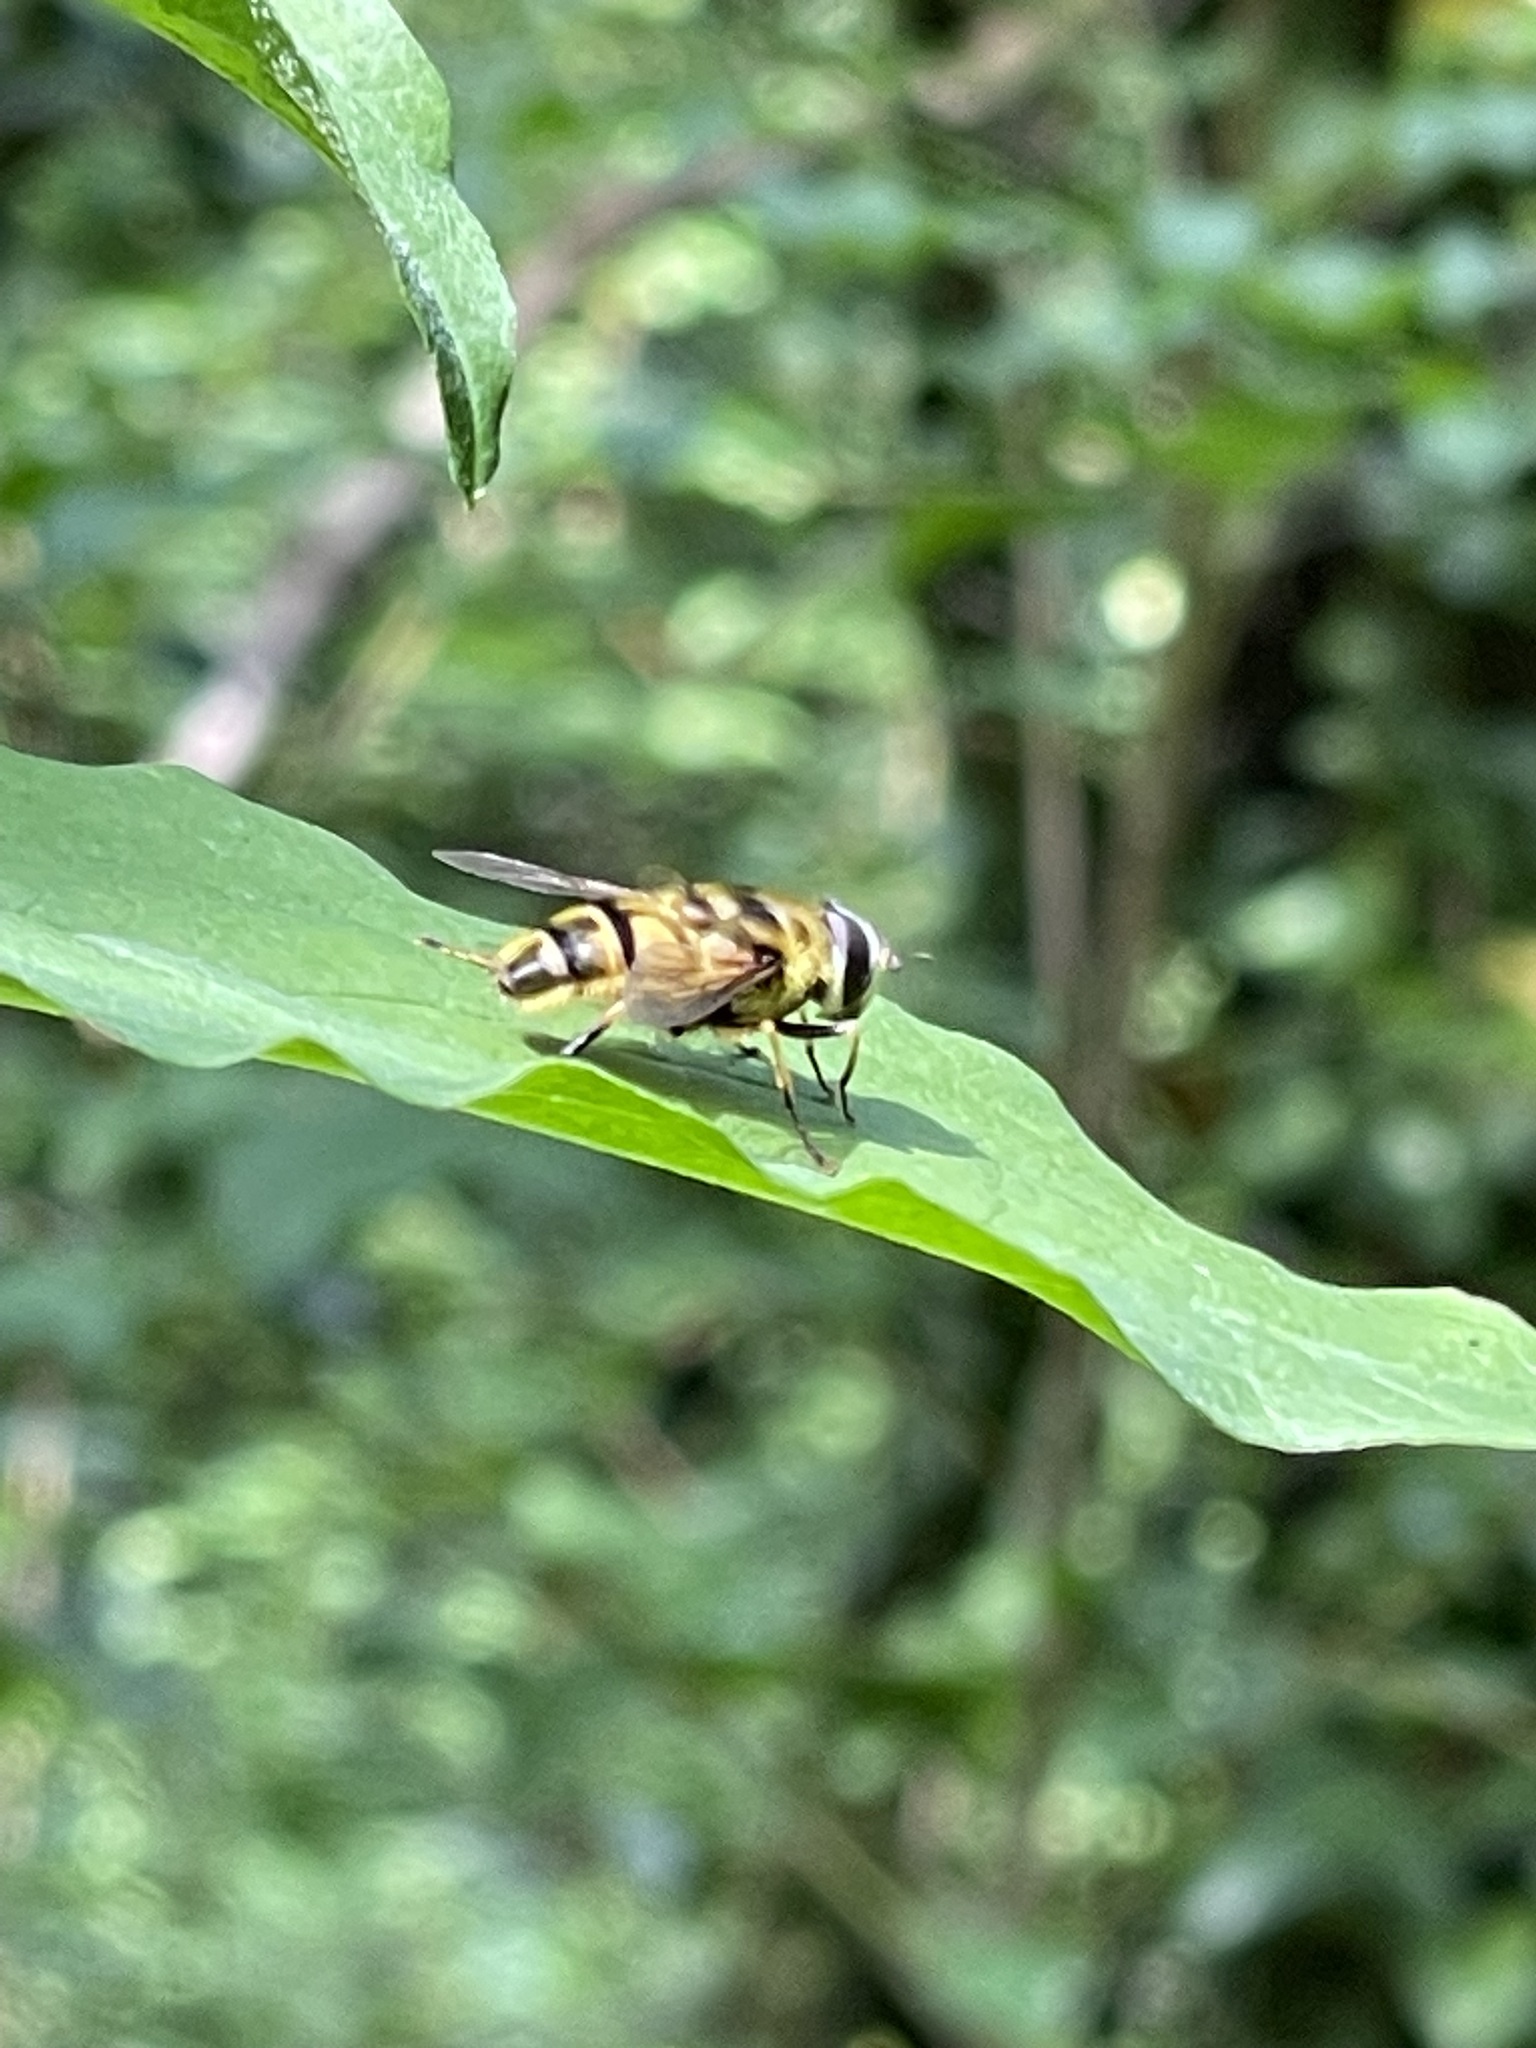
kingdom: Animalia
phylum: Arthropoda
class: Insecta
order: Diptera
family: Syrphidae
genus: Myathropa
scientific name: Myathropa florea
